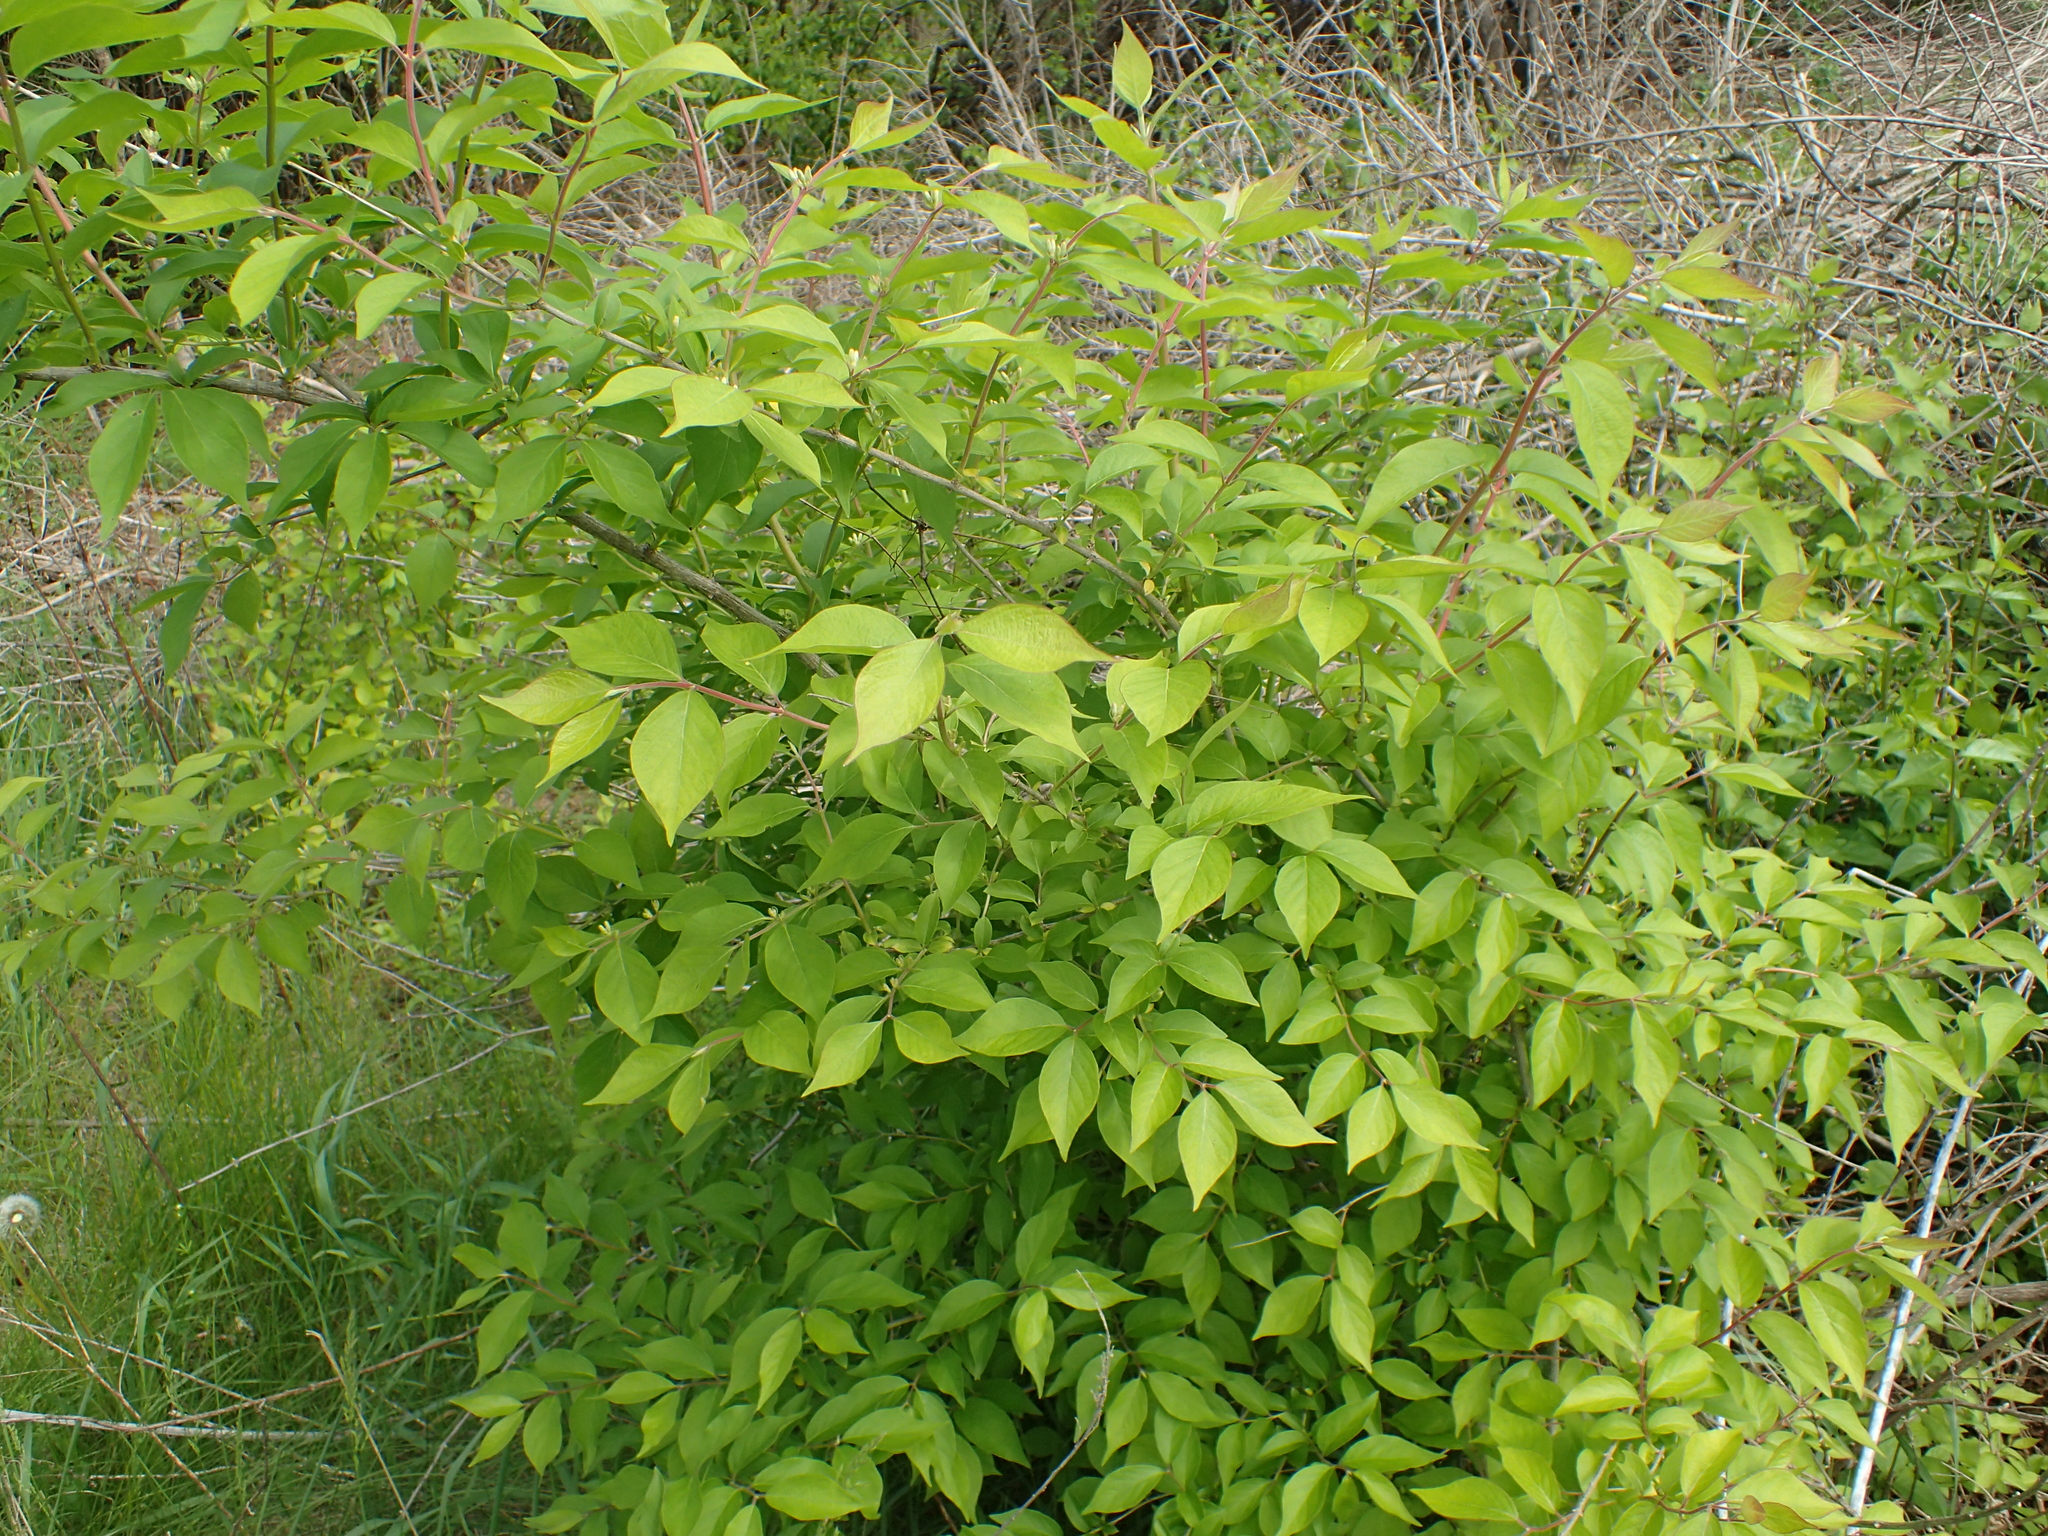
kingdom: Plantae
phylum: Tracheophyta
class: Magnoliopsida
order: Dipsacales
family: Caprifoliaceae
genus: Lonicera
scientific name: Lonicera maackii
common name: Amur honeysuckle
